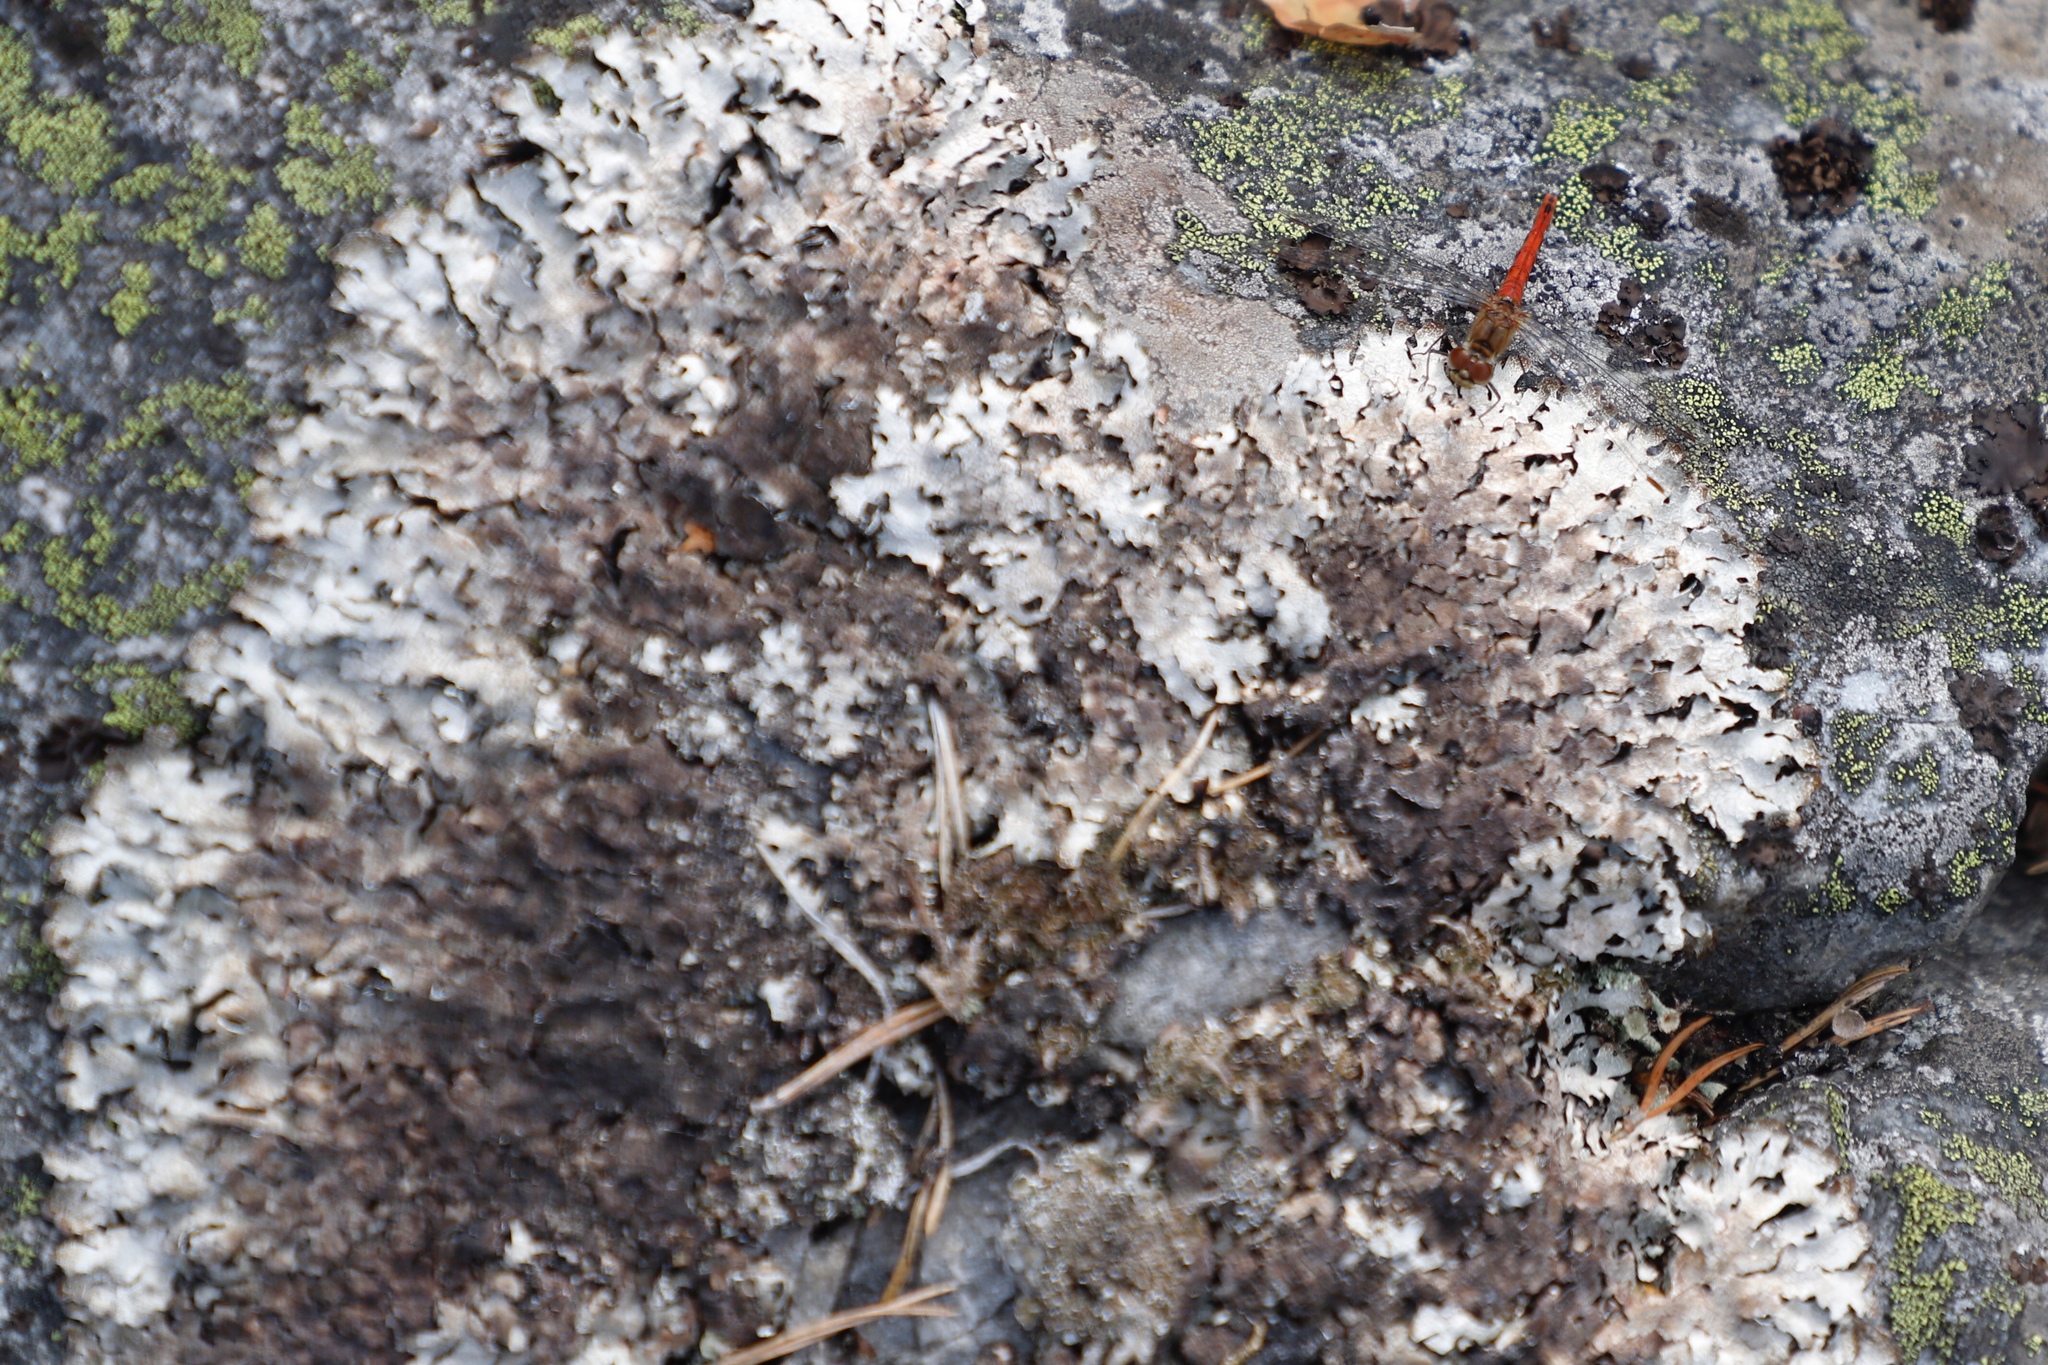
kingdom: Fungi
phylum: Ascomycota
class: Lecanoromycetes
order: Lecanorales
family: Parmeliaceae
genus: Parmelia
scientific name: Parmelia saxatilis
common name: Salted shield lichen
